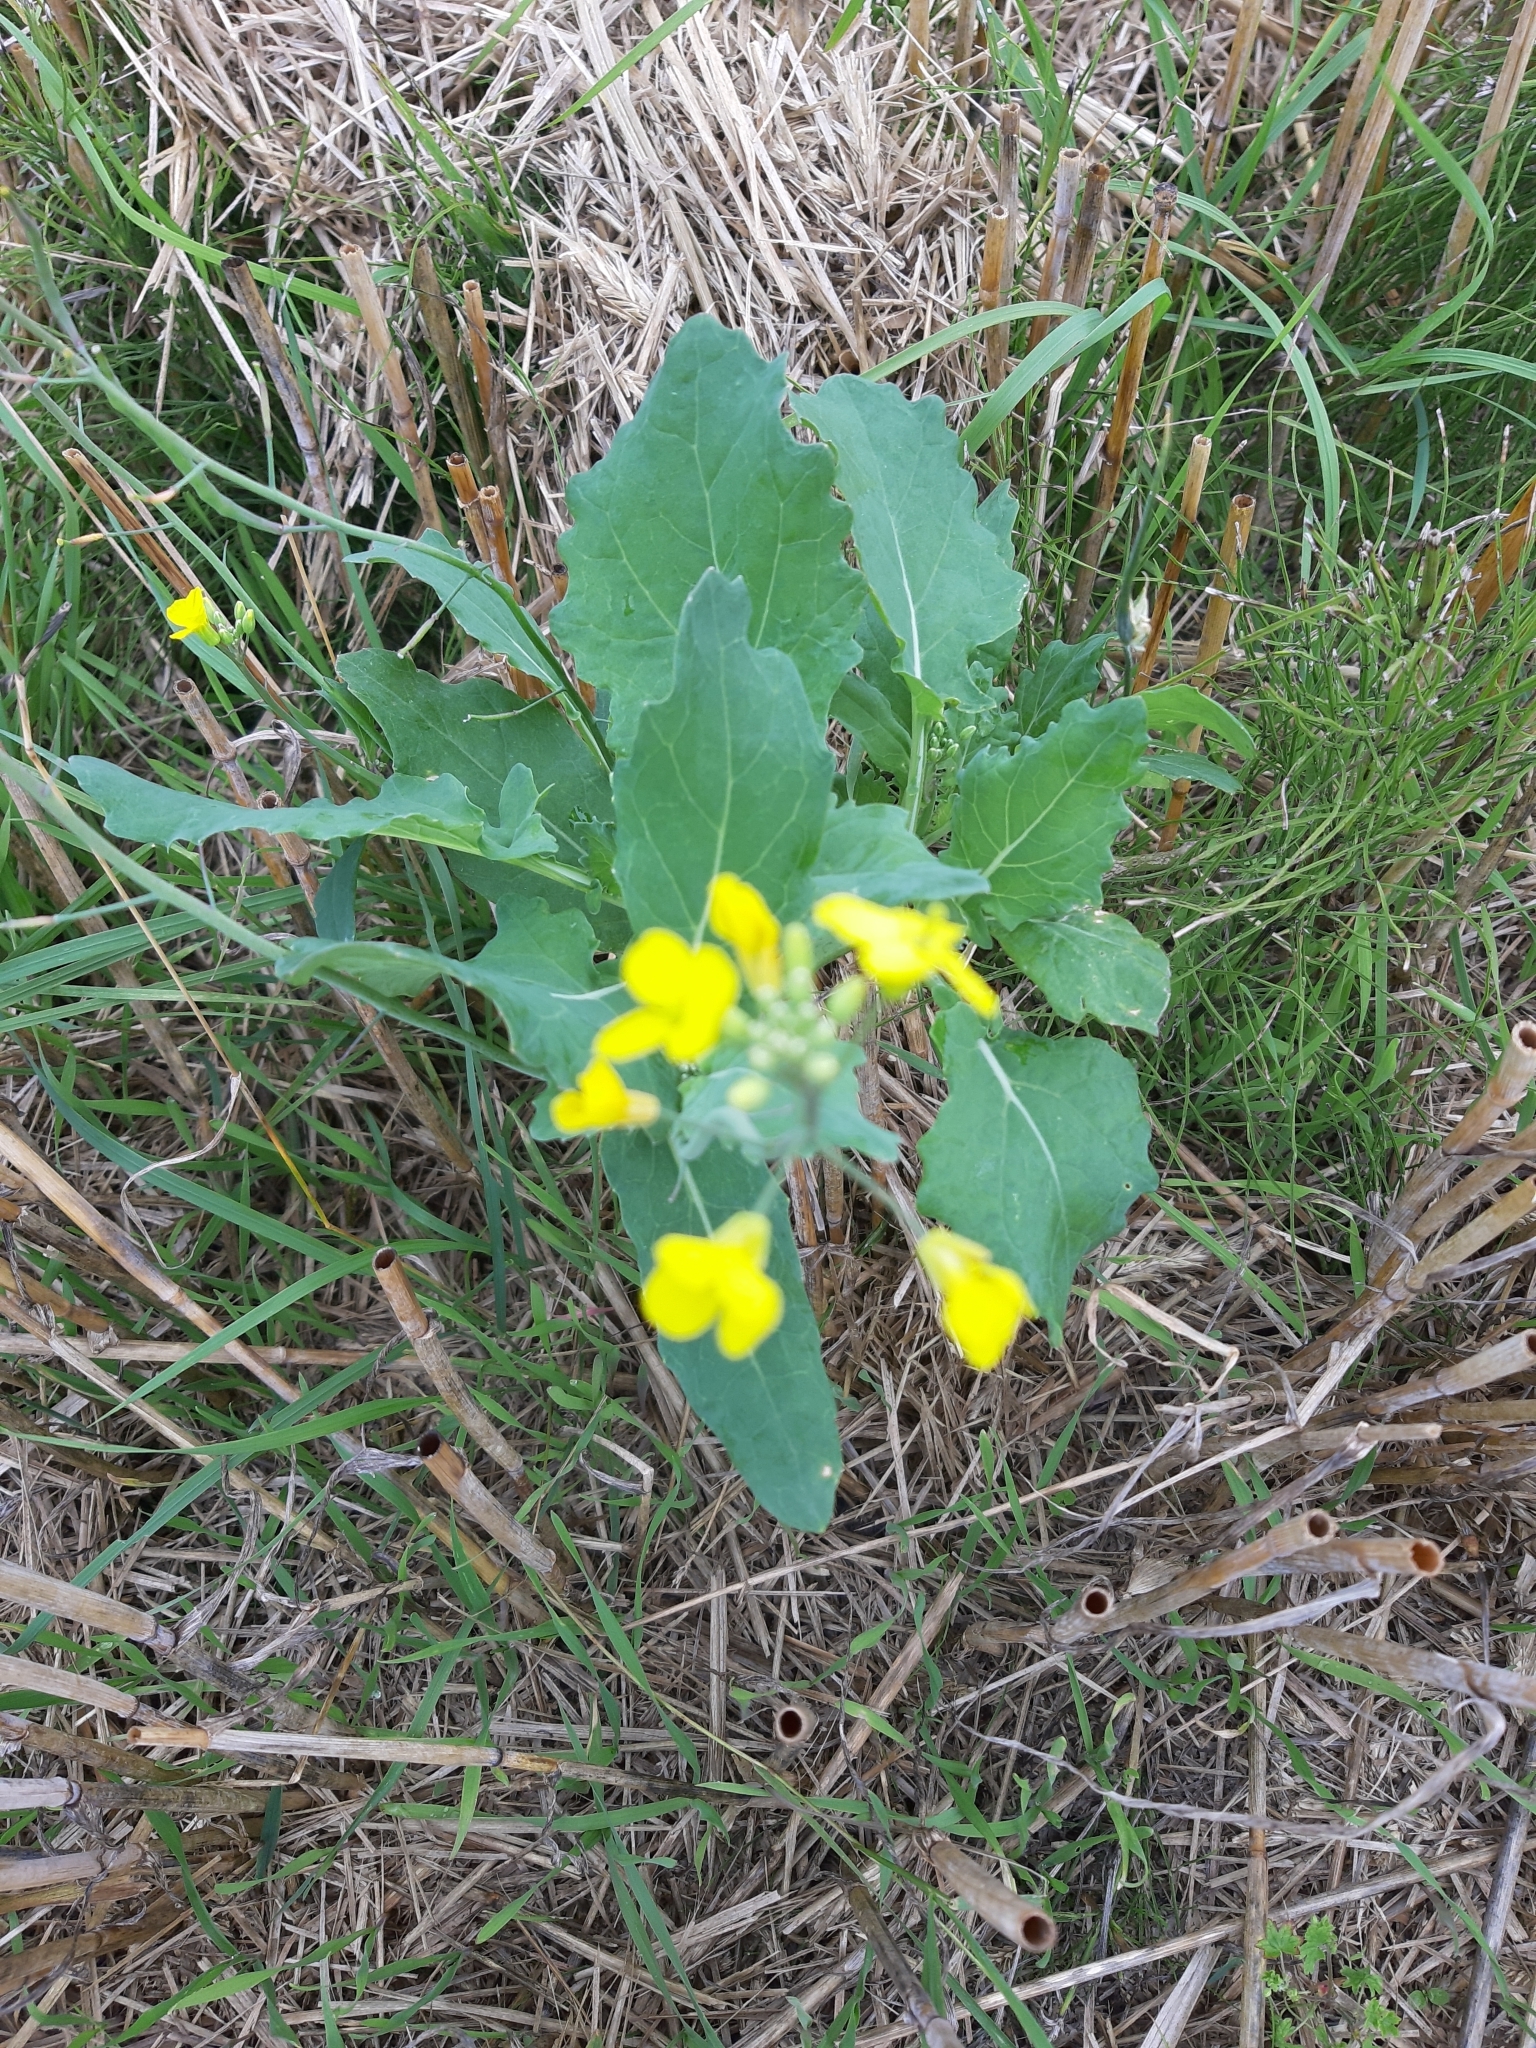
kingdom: Plantae
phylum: Tracheophyta
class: Magnoliopsida
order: Brassicales
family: Brassicaceae
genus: Brassica
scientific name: Brassica napus
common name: Rape
